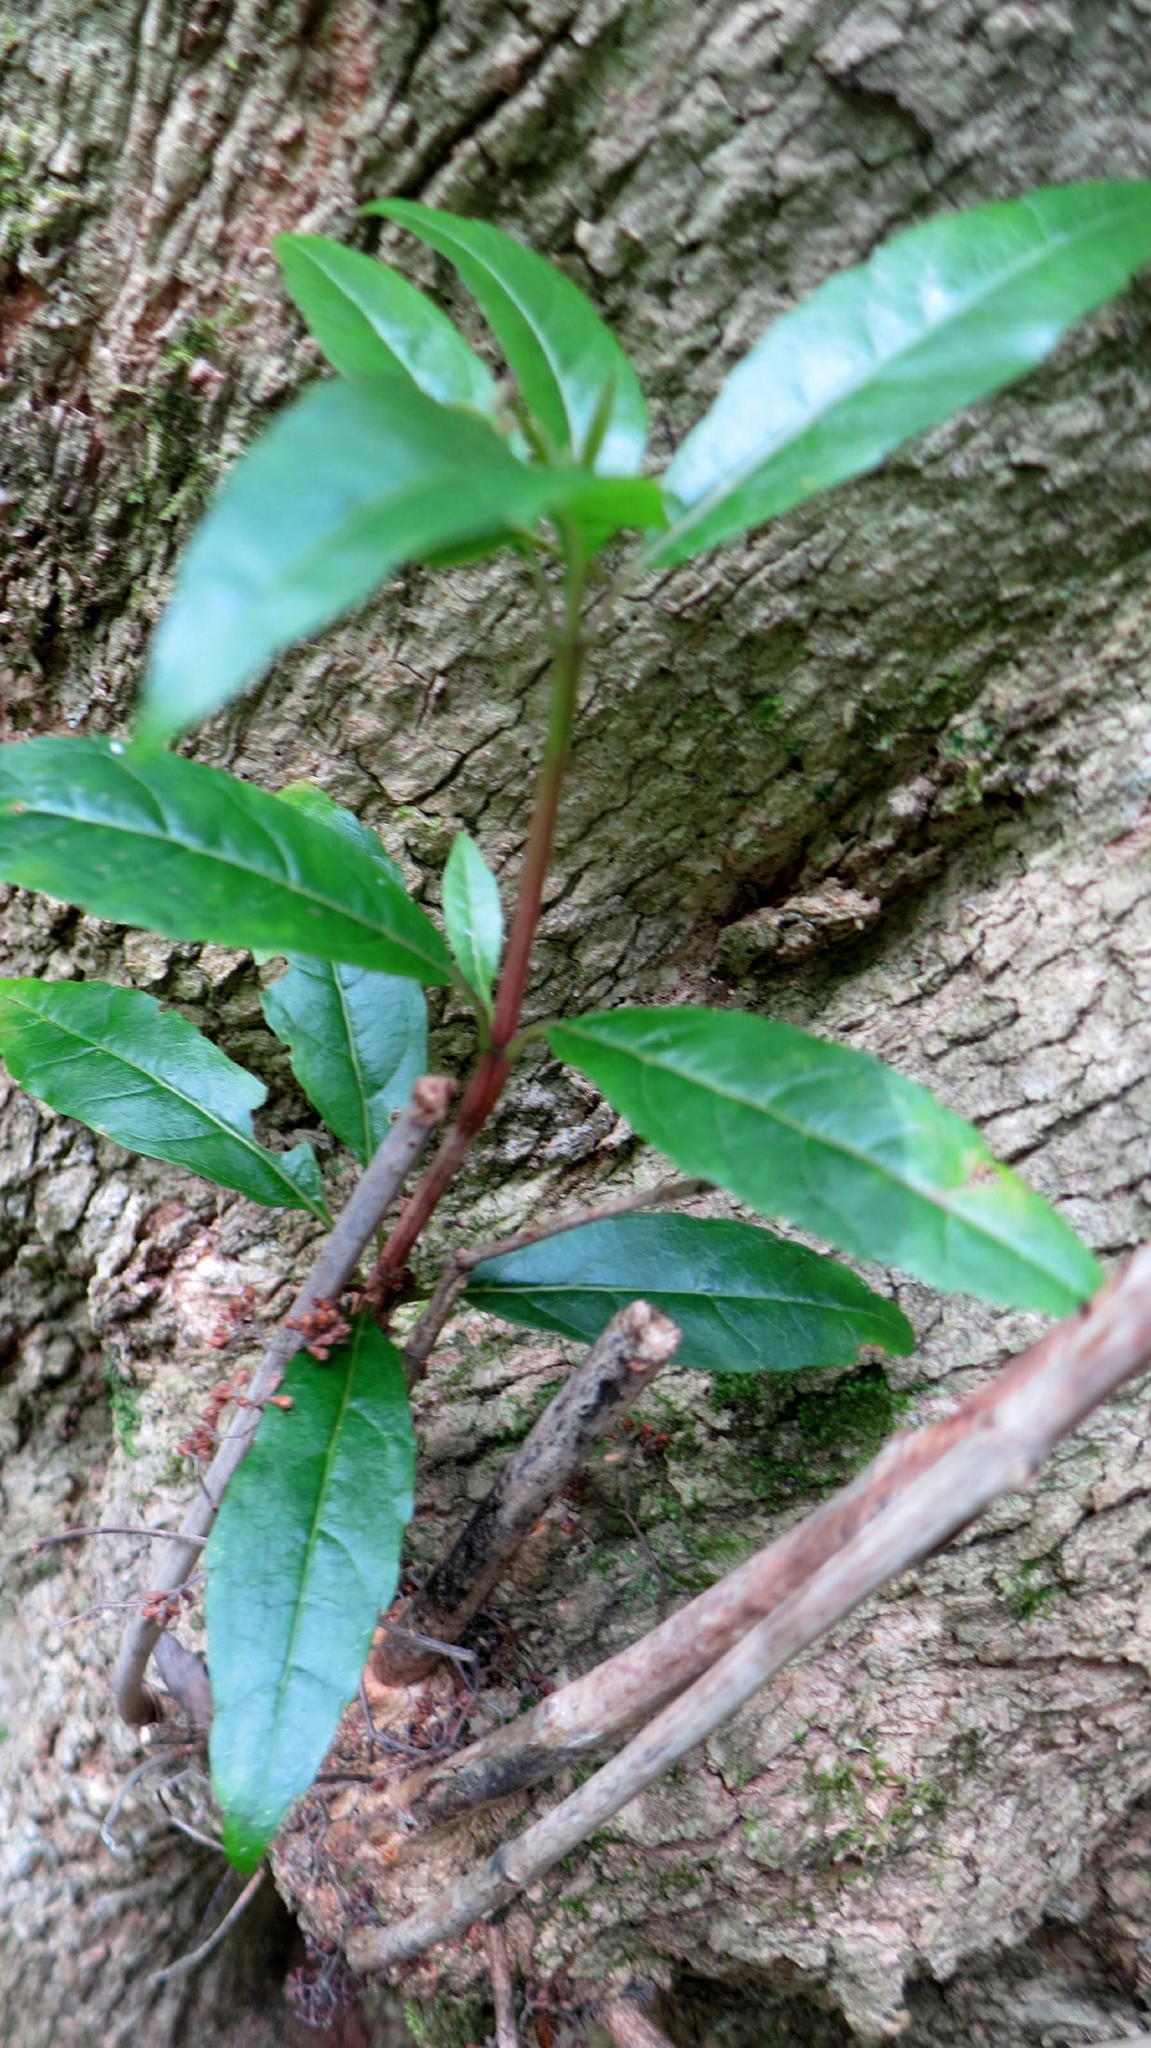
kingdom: Plantae
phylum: Tracheophyta
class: Magnoliopsida
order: Lamiales
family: Stilbaceae
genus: Nuxia
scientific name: Nuxia floribunda
